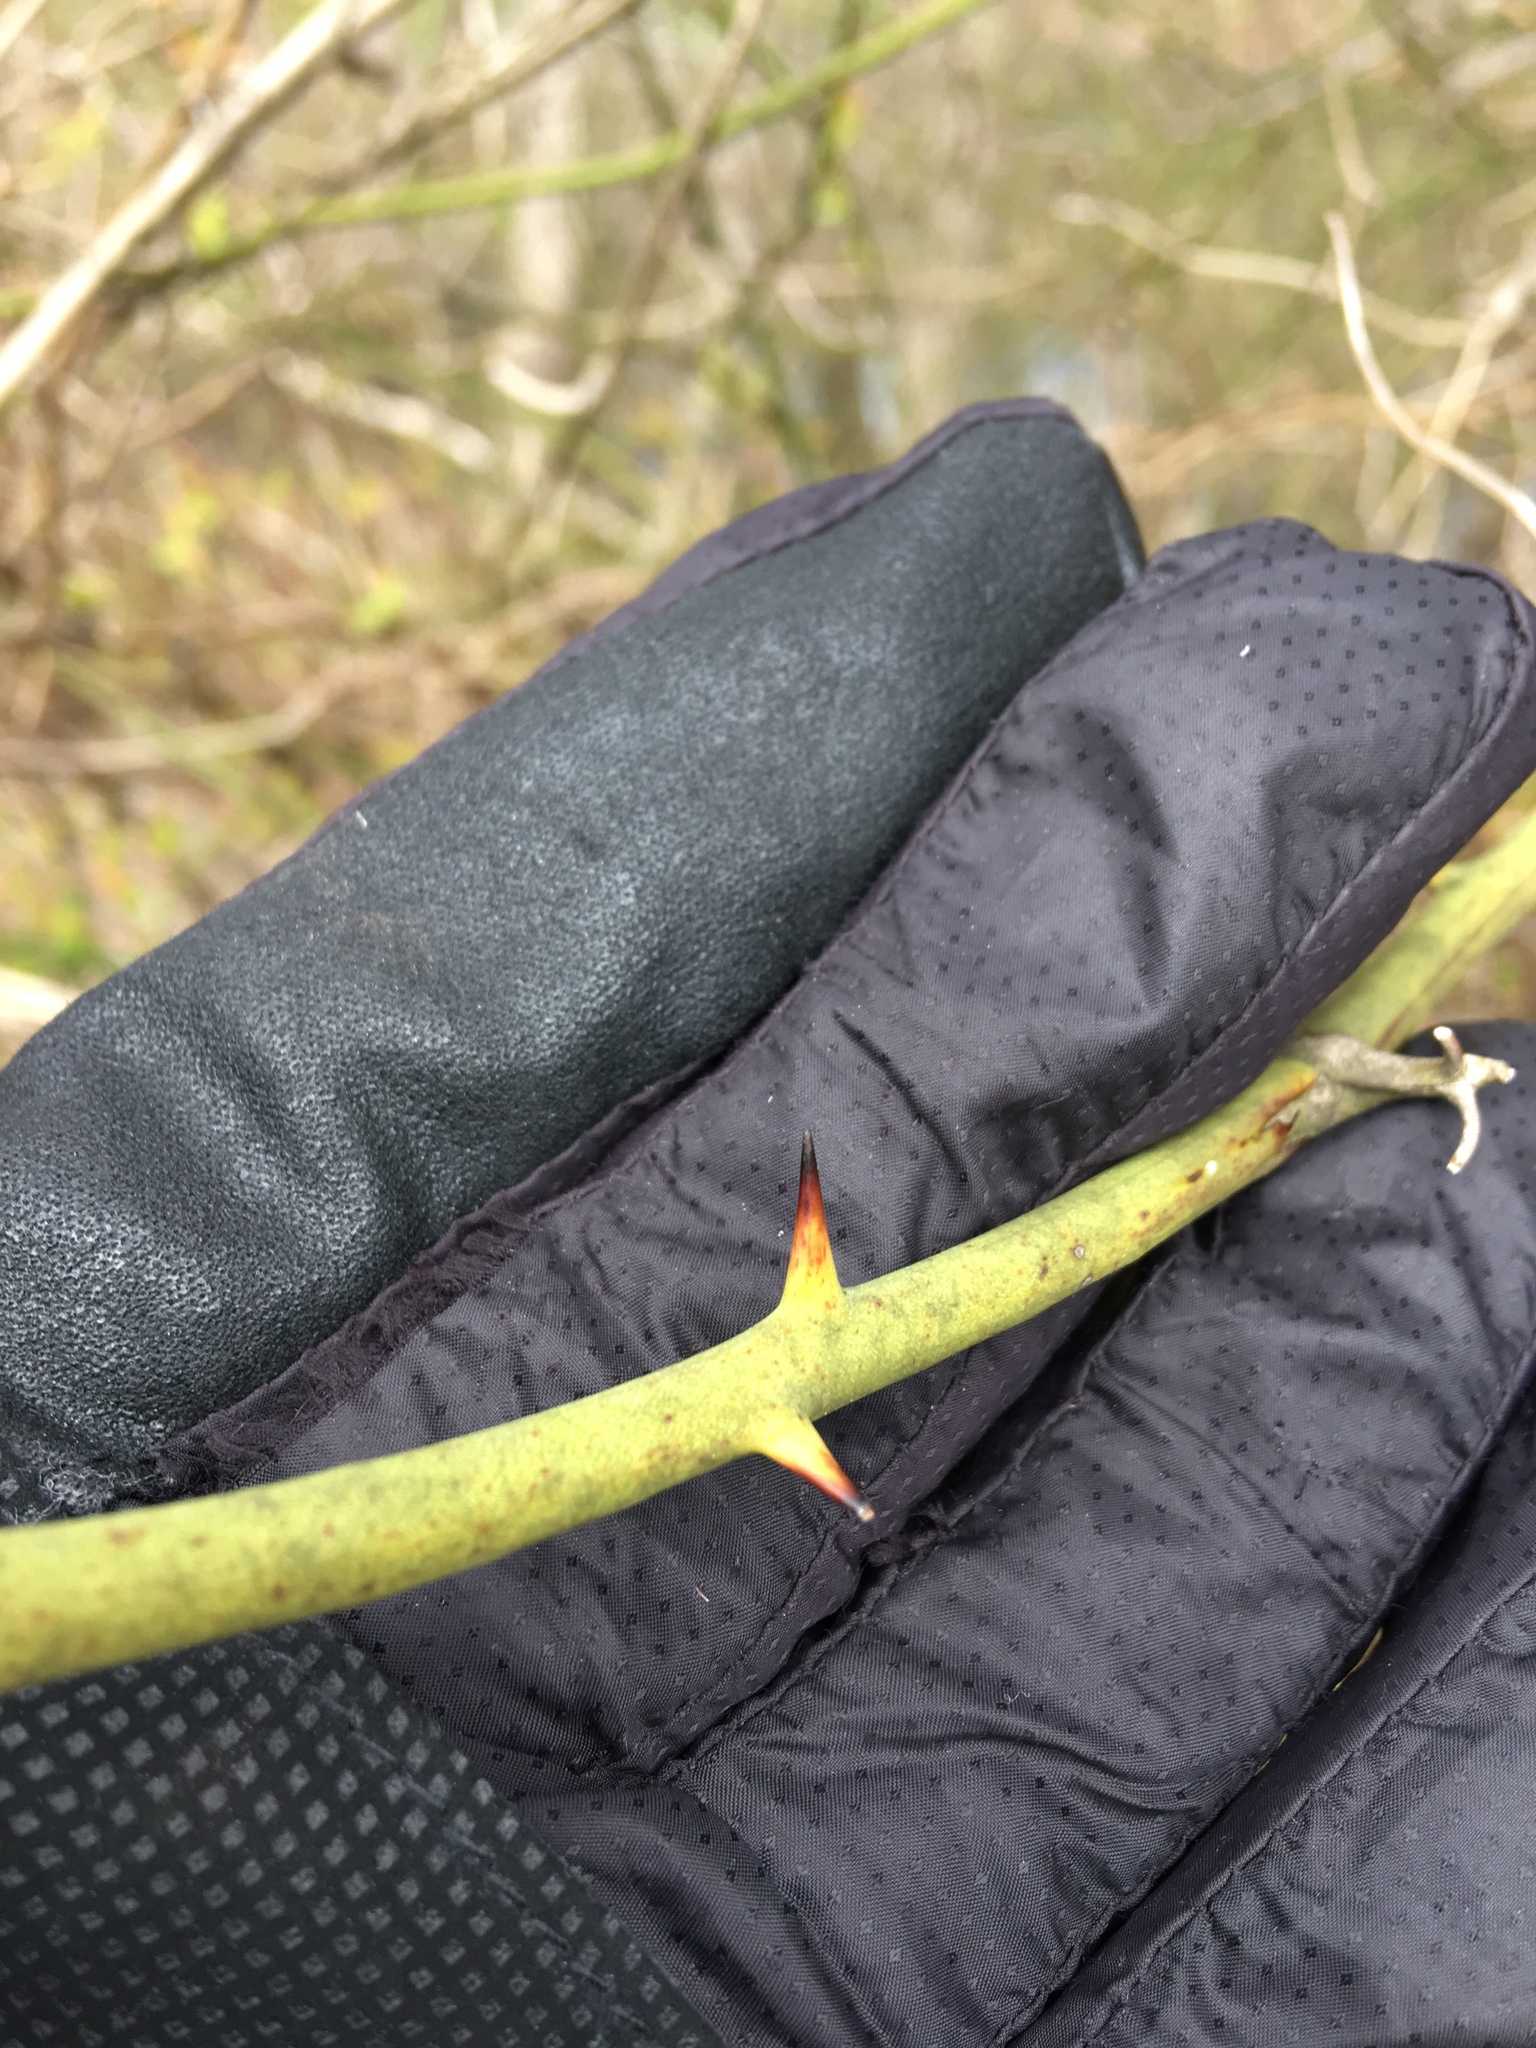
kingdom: Plantae
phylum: Tracheophyta
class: Liliopsida
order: Liliales
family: Smilacaceae
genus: Smilax
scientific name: Smilax rotundifolia
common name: Bullbriar
